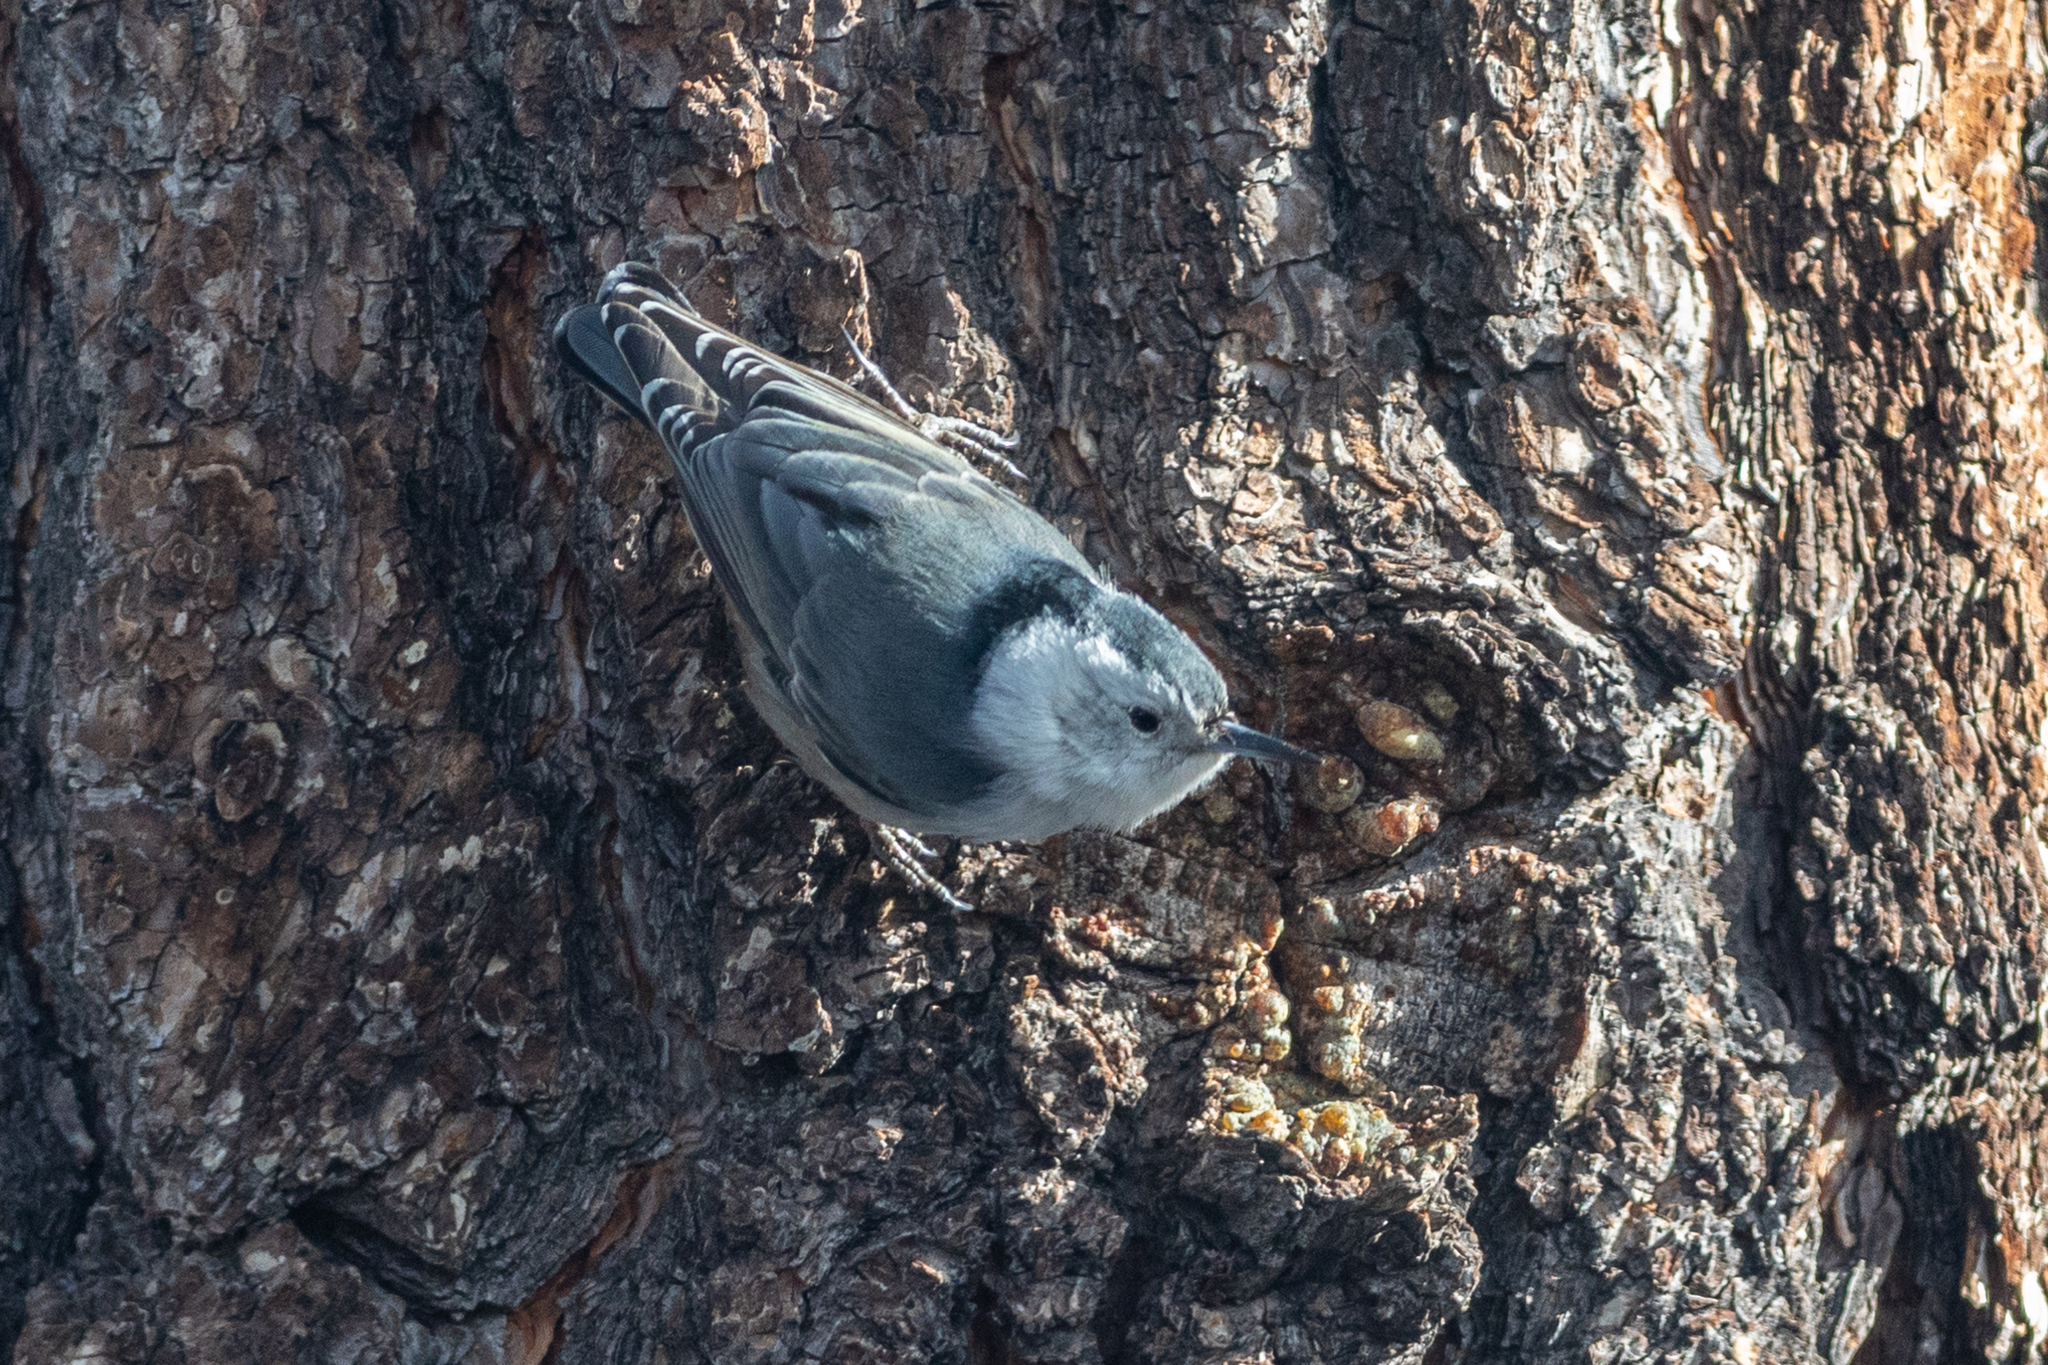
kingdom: Animalia
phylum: Chordata
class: Aves
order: Passeriformes
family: Sittidae
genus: Sitta
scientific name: Sitta carolinensis
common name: White-breasted nuthatch
